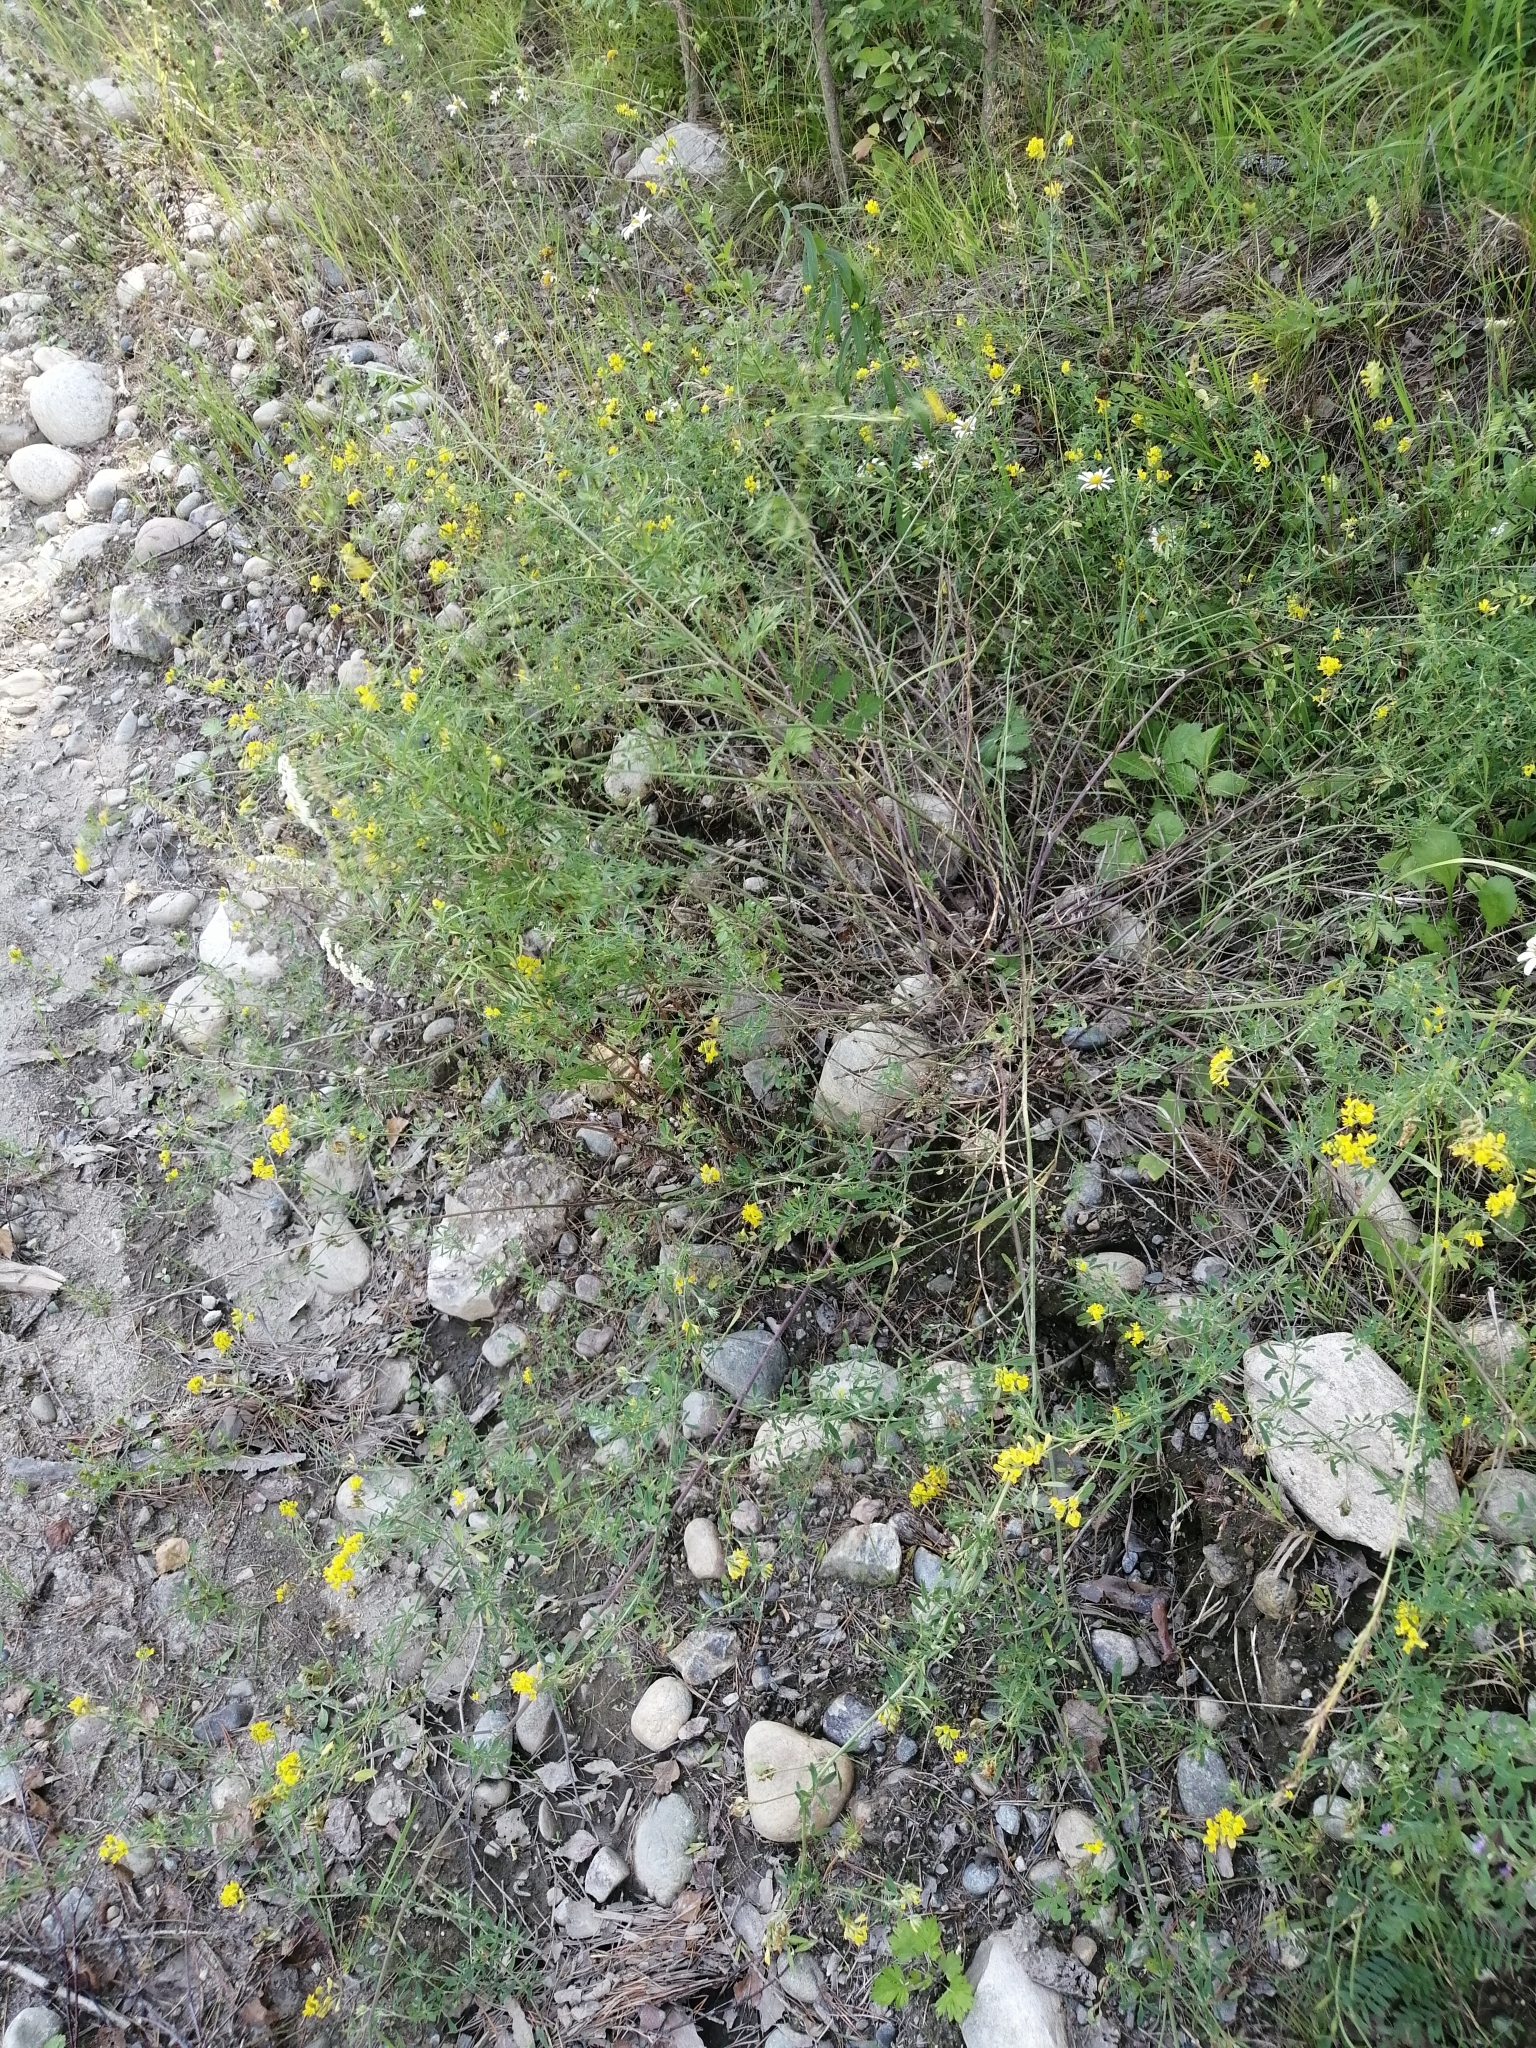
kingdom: Plantae
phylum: Tracheophyta
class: Magnoliopsida
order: Fabales
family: Fabaceae
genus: Medicago
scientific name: Medicago falcata
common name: Sickle medick
